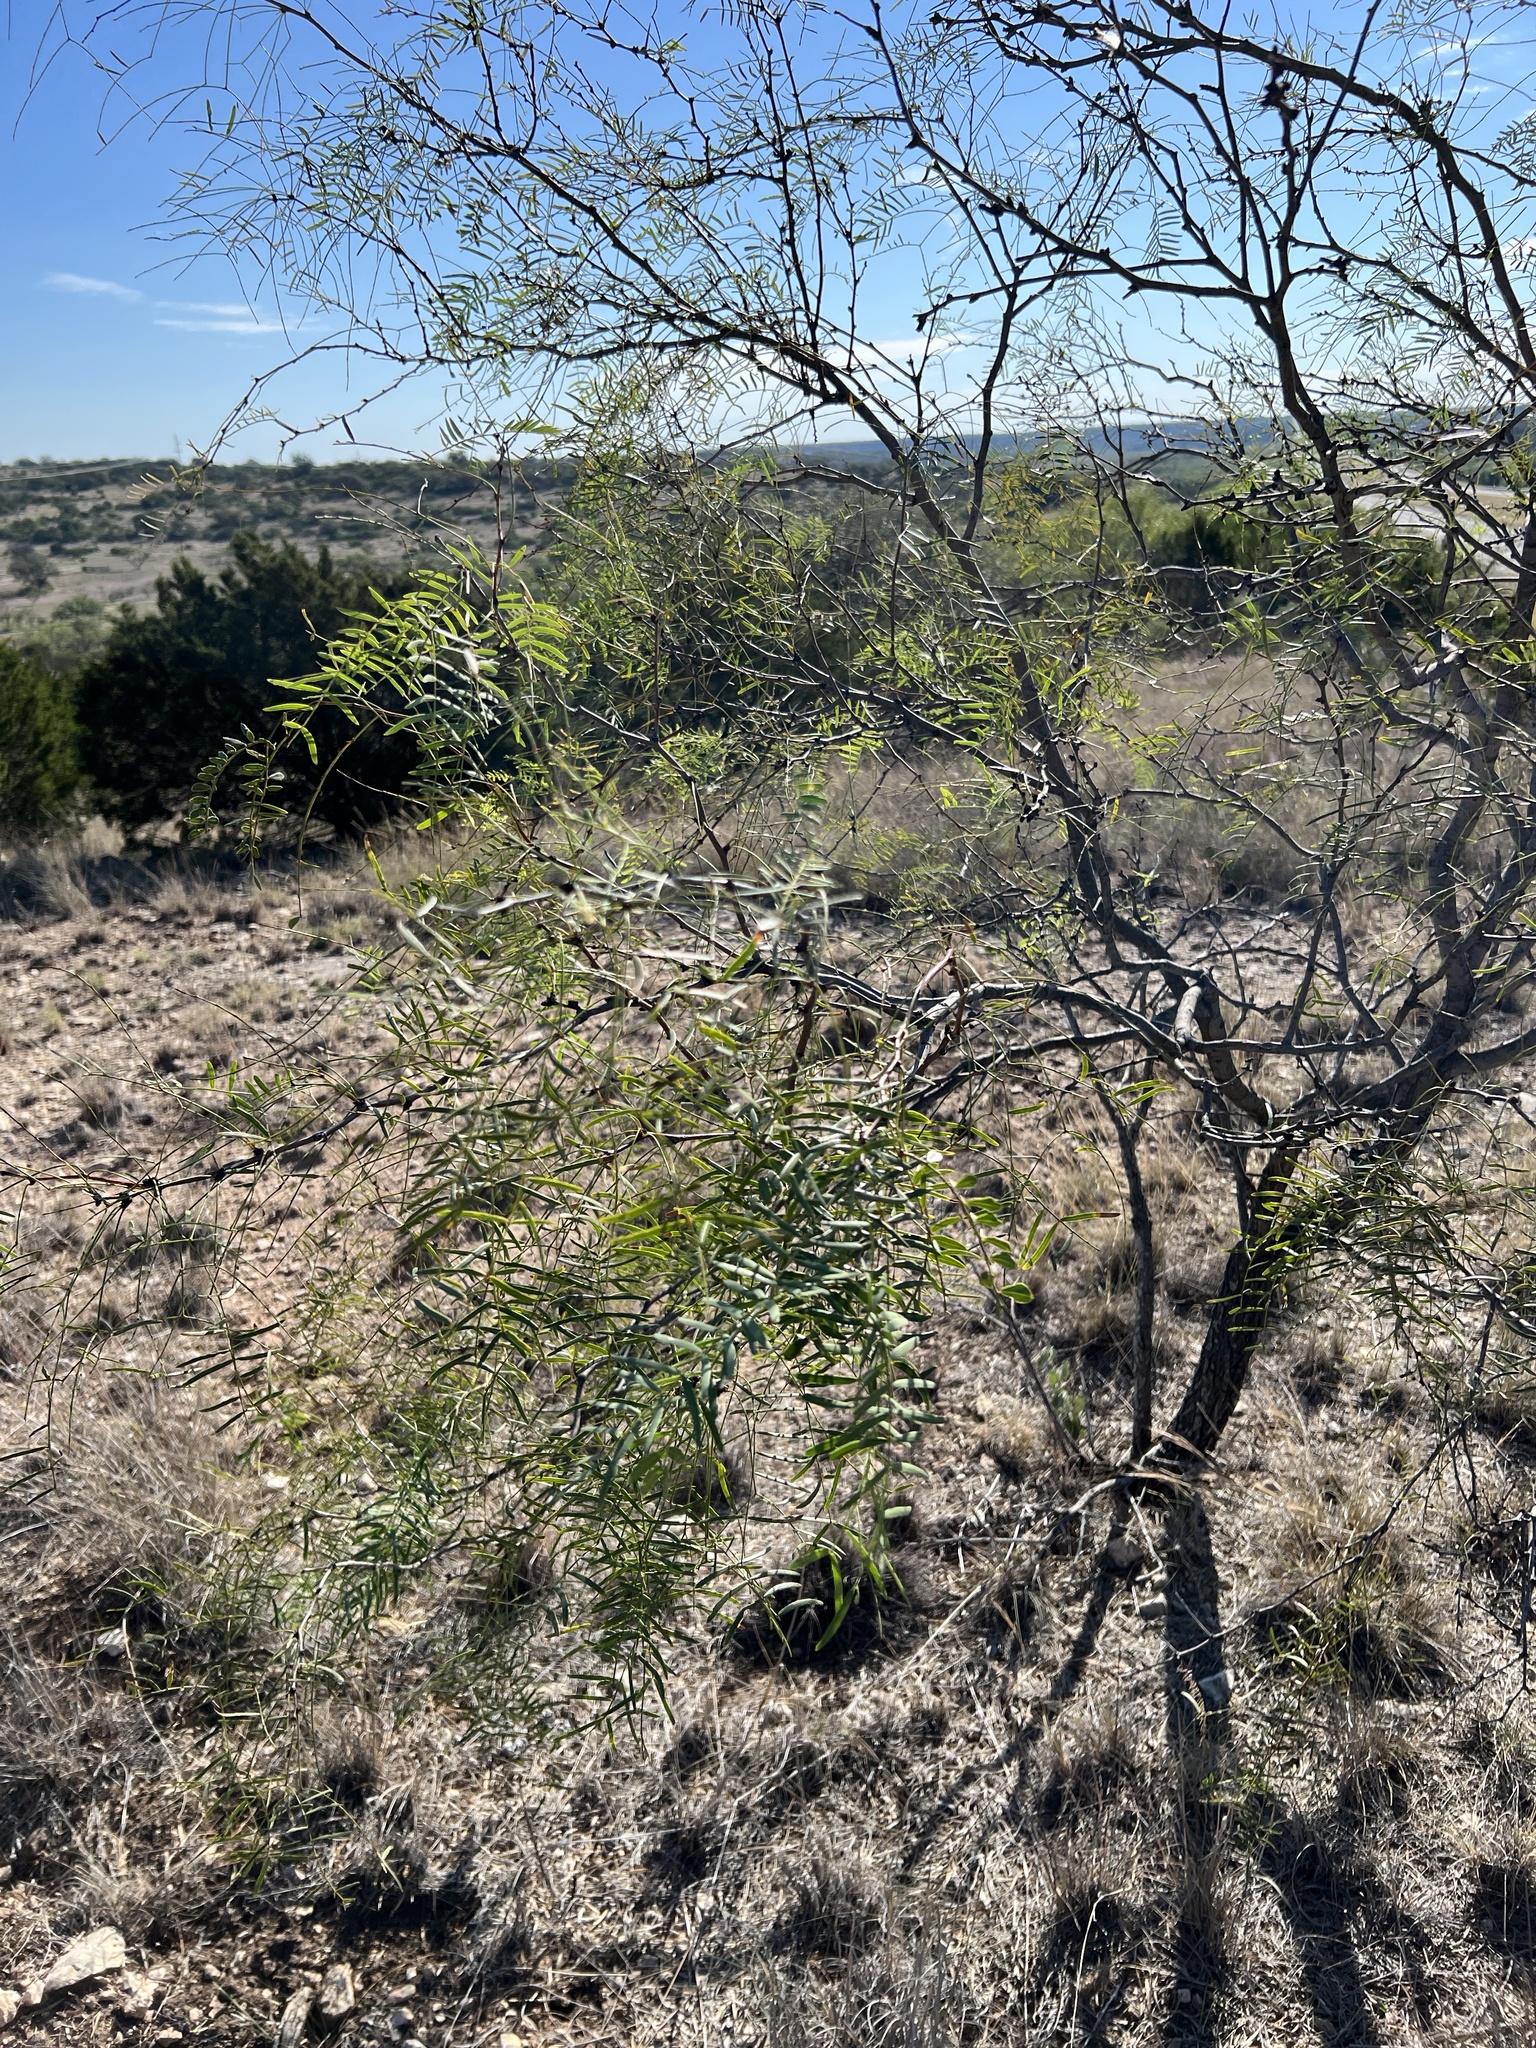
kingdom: Plantae
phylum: Tracheophyta
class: Magnoliopsida
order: Fabales
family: Fabaceae
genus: Prosopis
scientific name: Prosopis glandulosa
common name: Honey mesquite
